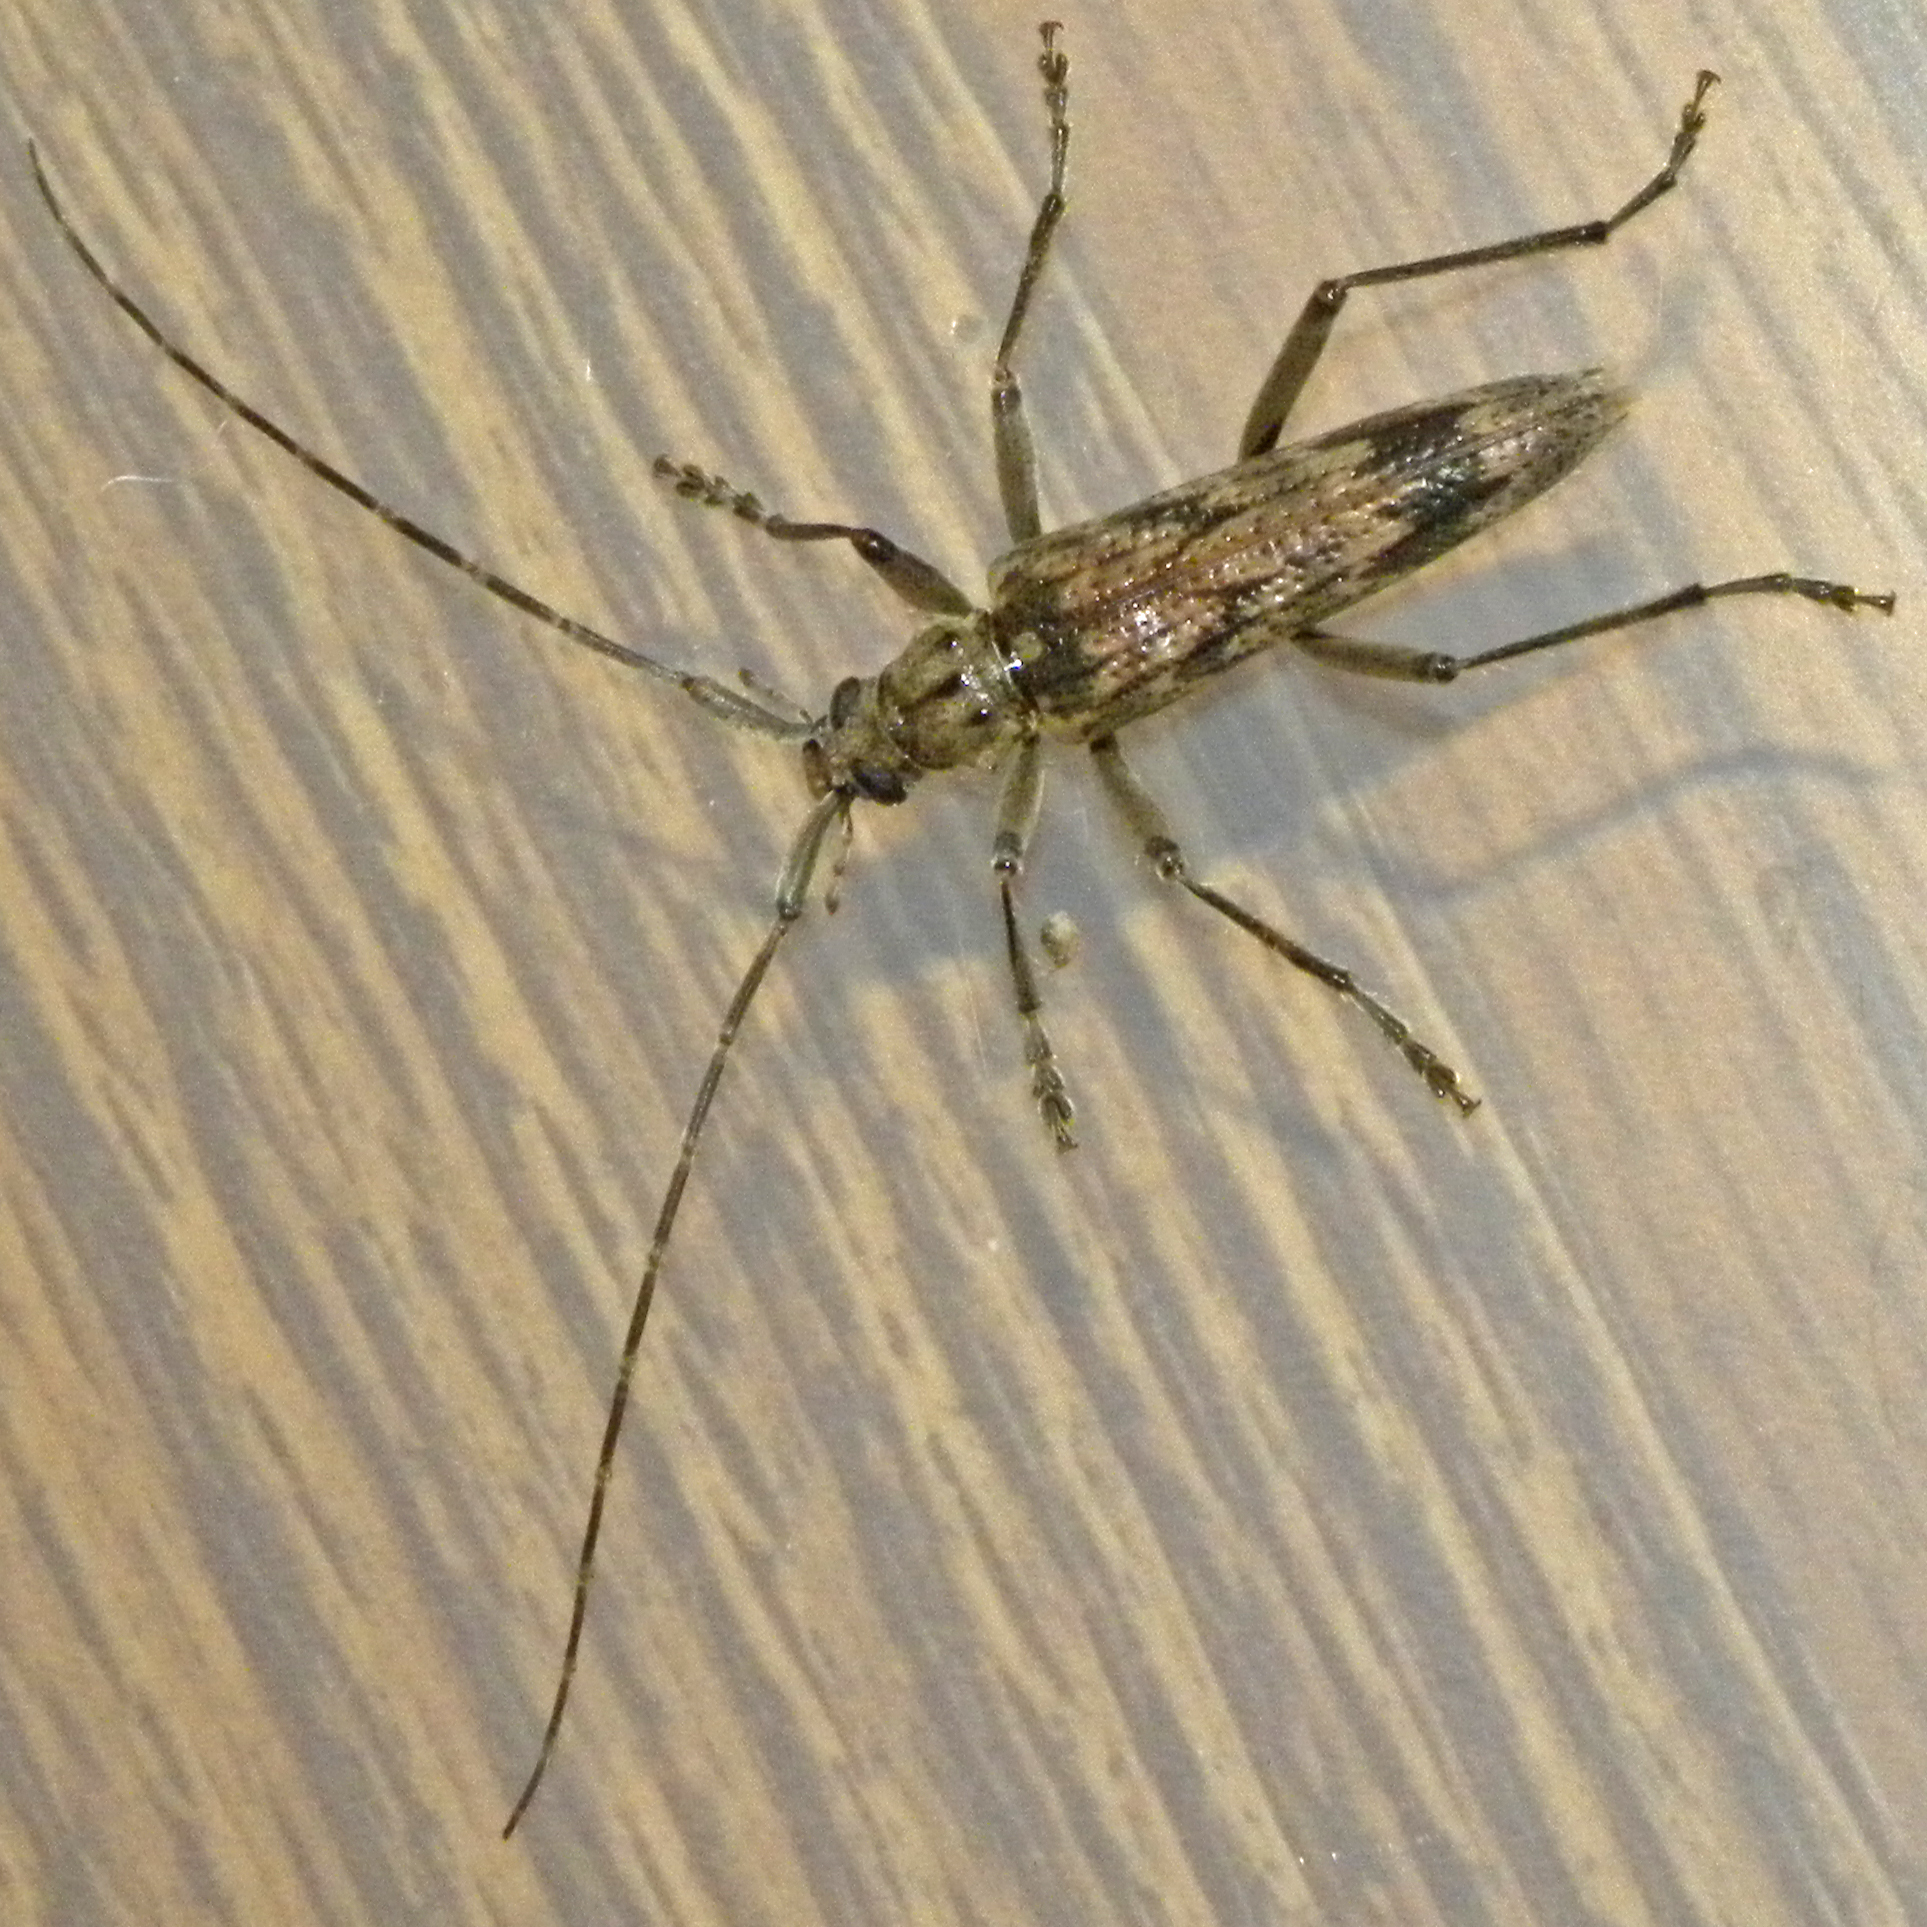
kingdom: Animalia
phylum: Arthropoda
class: Insecta
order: Coleoptera
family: Cerambycidae
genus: Elytrimitatrix
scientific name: Elytrimitatrix undata
